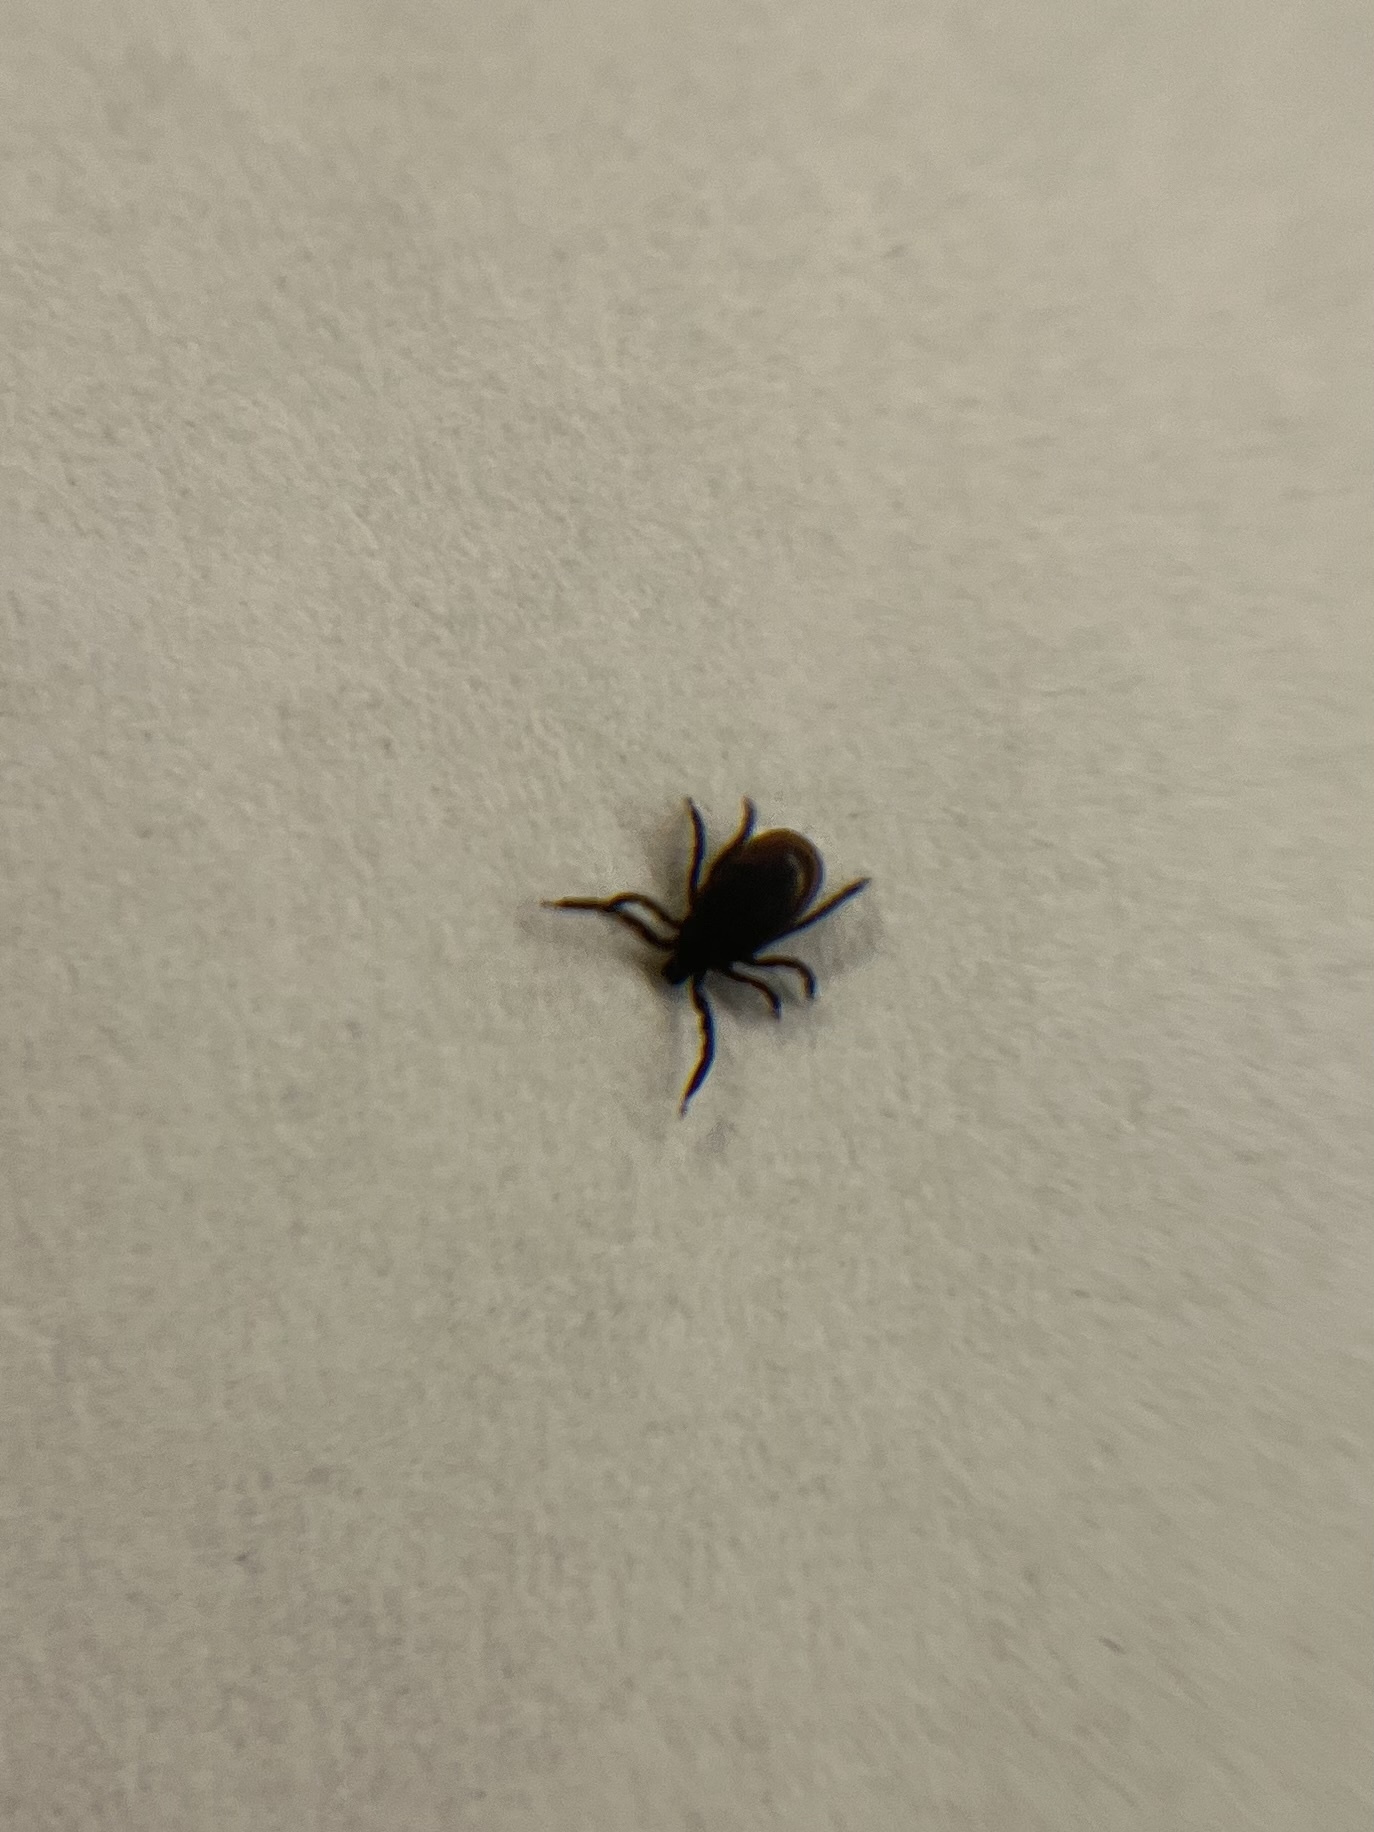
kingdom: Animalia
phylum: Arthropoda
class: Arachnida
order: Ixodida
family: Ixodidae
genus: Ixodes
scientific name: Ixodes pacificus
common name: California black-legged tick
